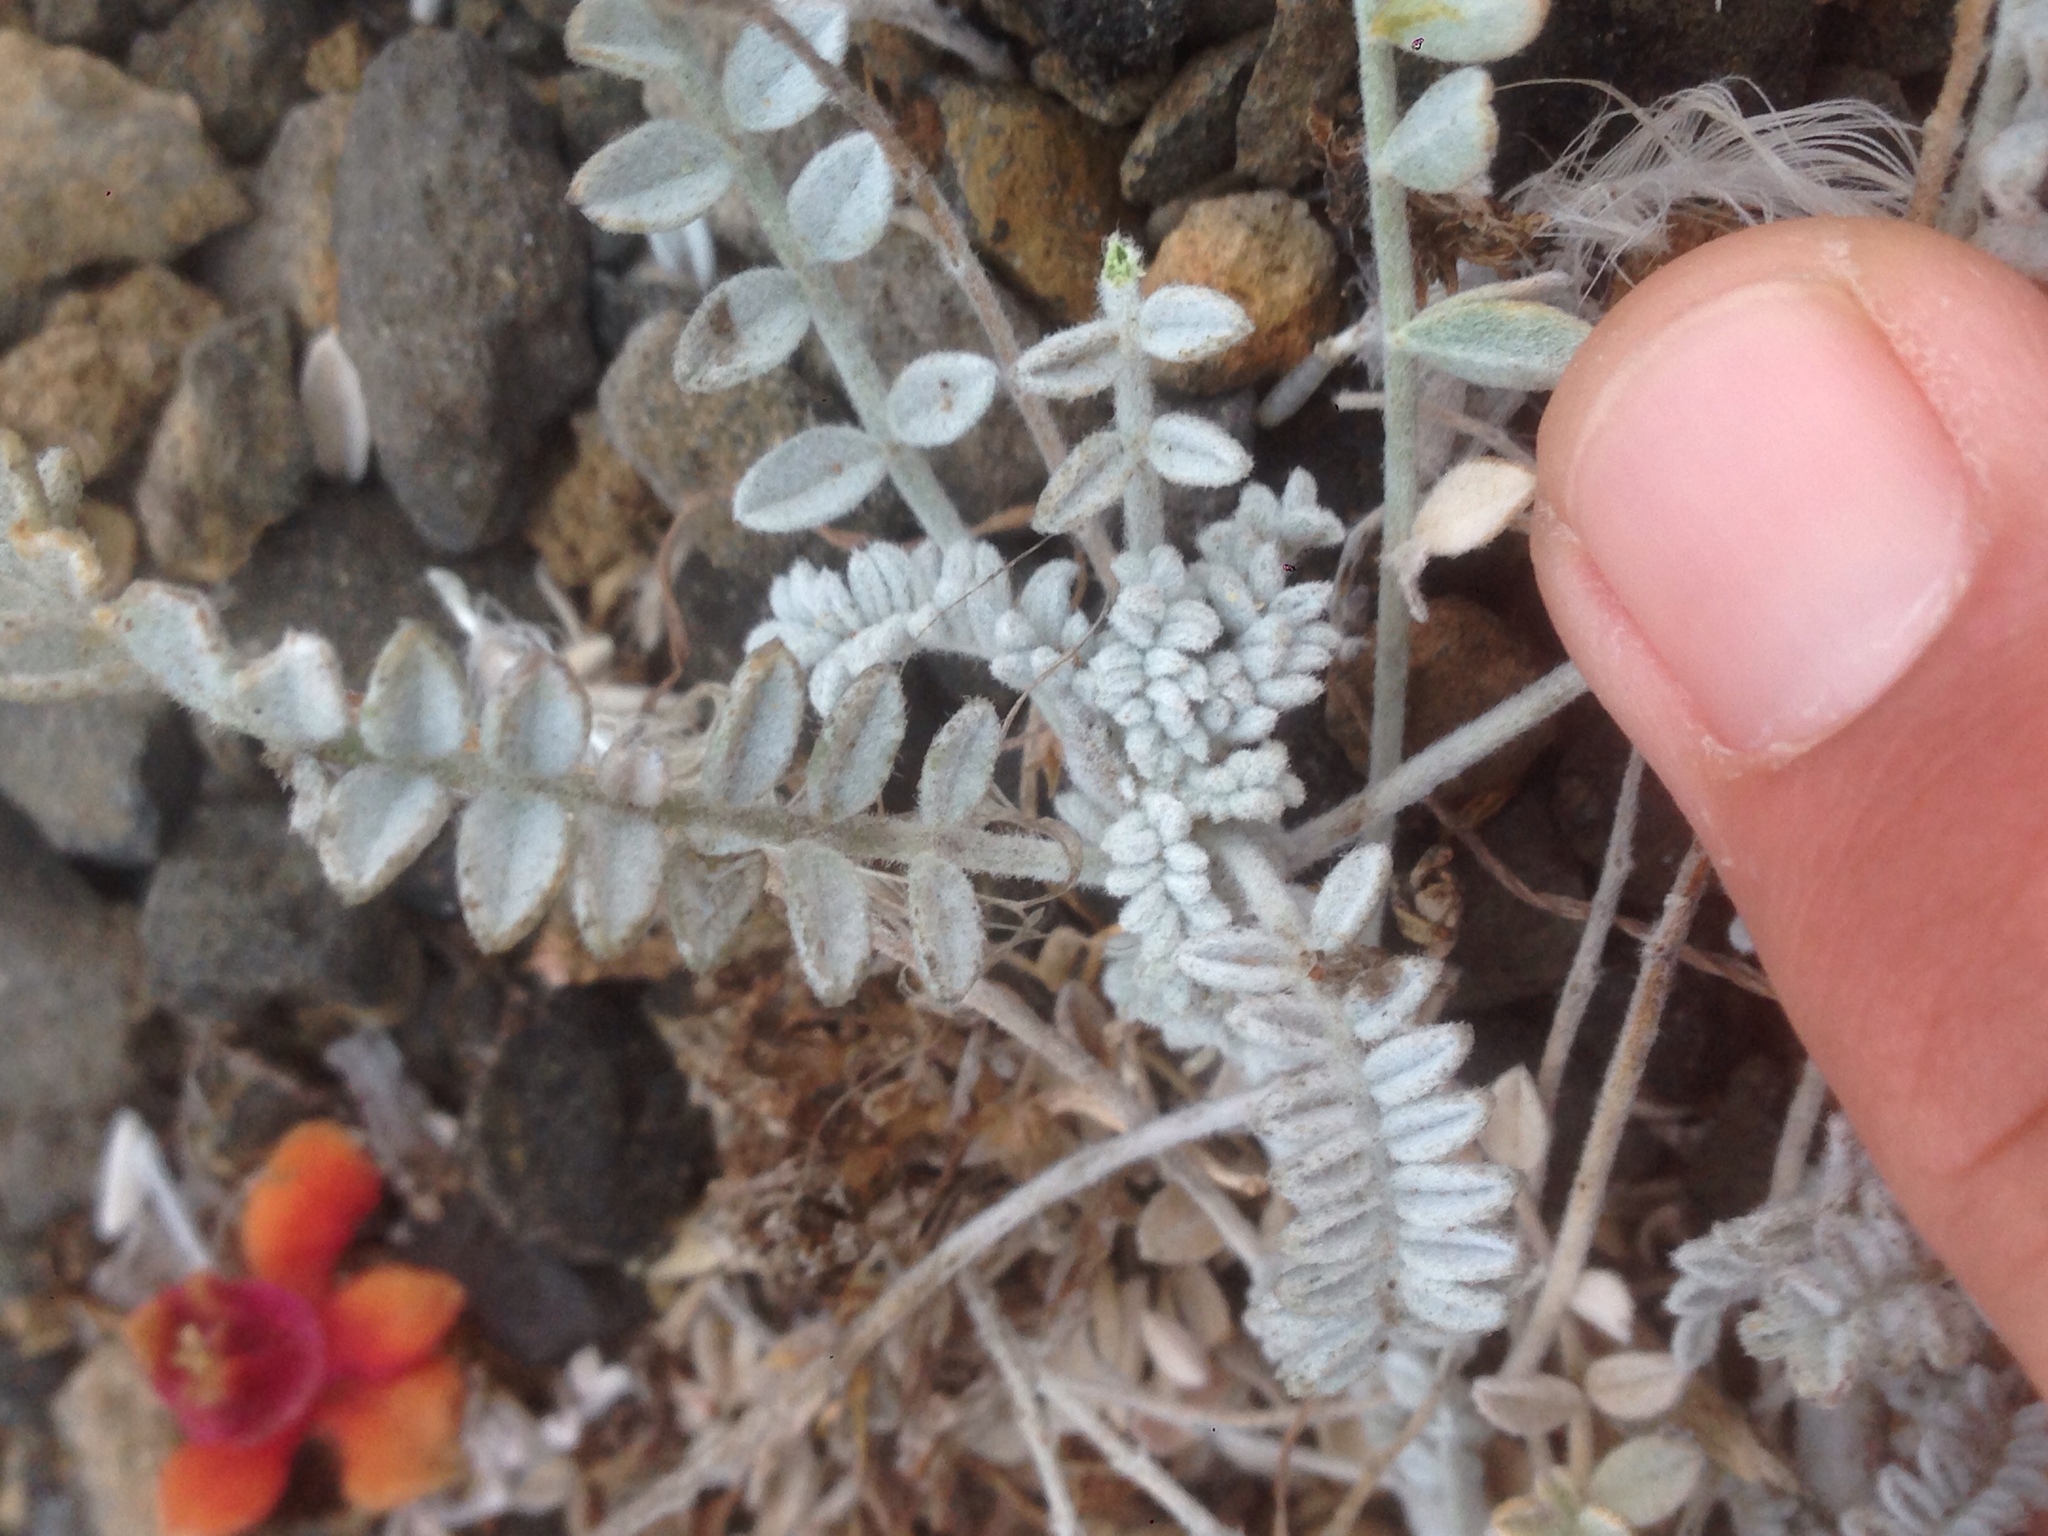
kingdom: Plantae
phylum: Tracheophyta
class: Magnoliopsida
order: Fabales
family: Fabaceae
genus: Astragalus
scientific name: Astragalus traskiae
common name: Trask's milk-vetch
